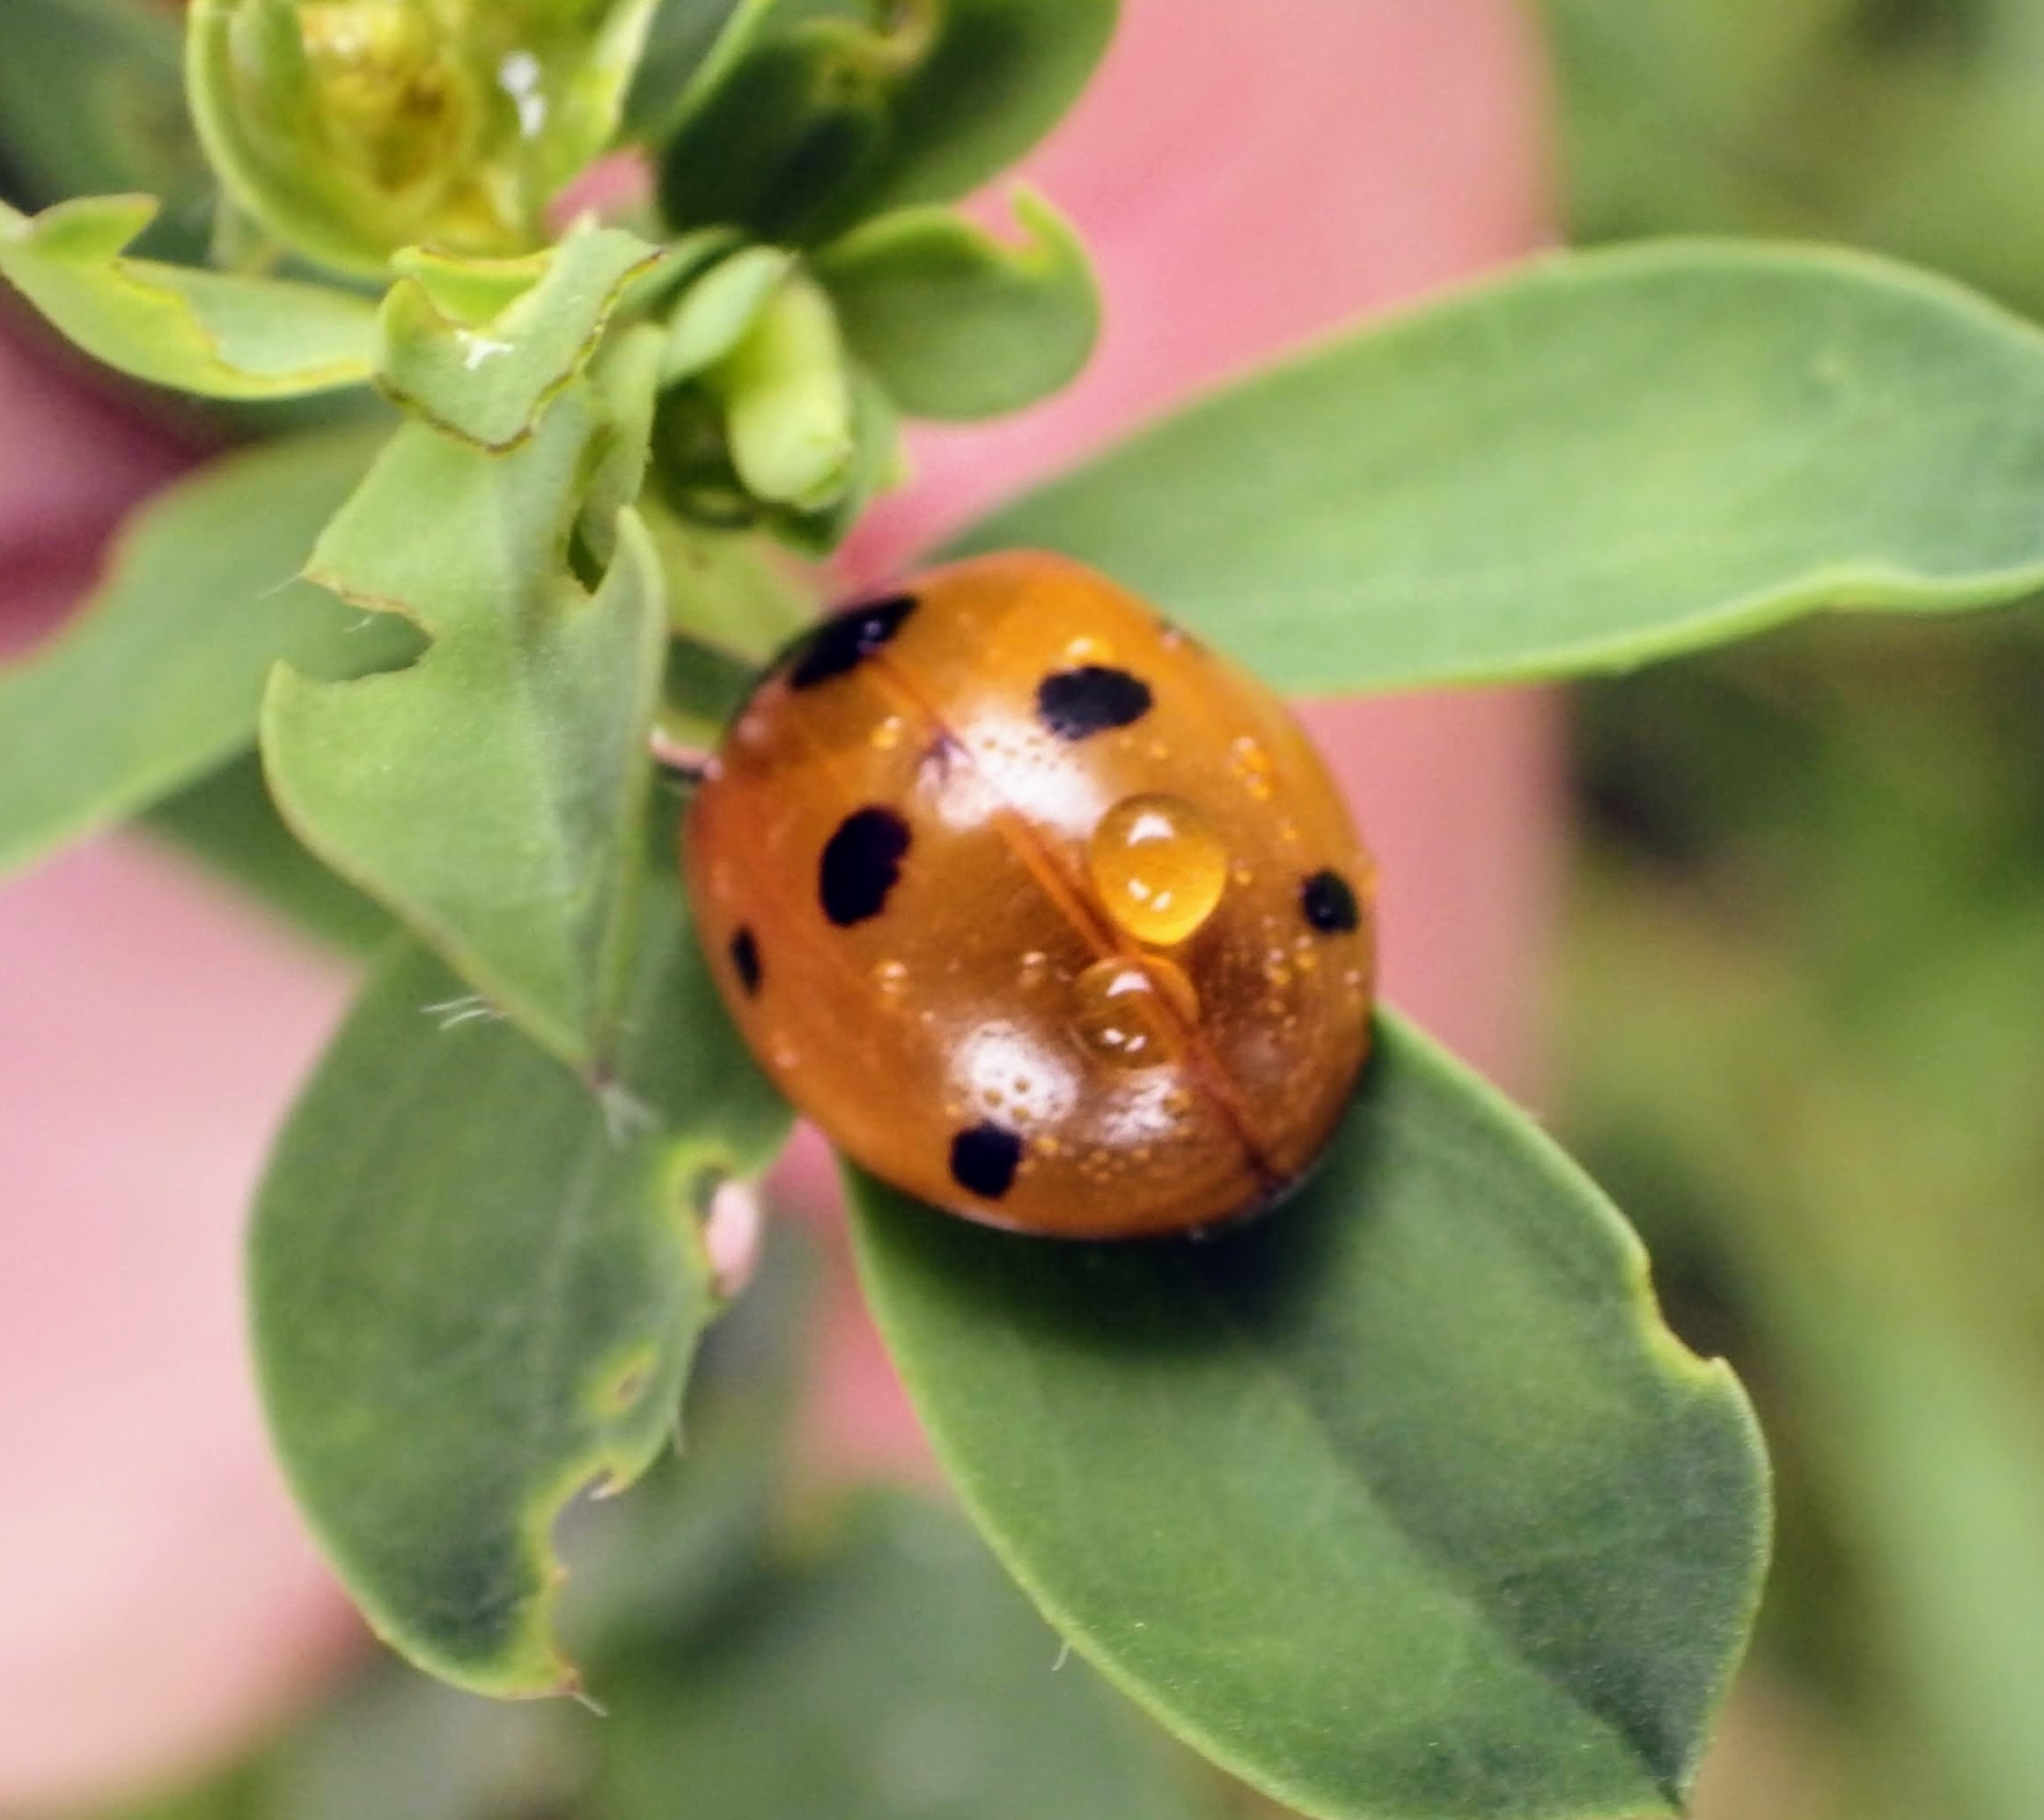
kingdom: Animalia
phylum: Arthropoda
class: Insecta
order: Coleoptera
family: Coccinellidae
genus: Coccinella
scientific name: Coccinella septempunctata
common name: Sevenspotted lady beetle
